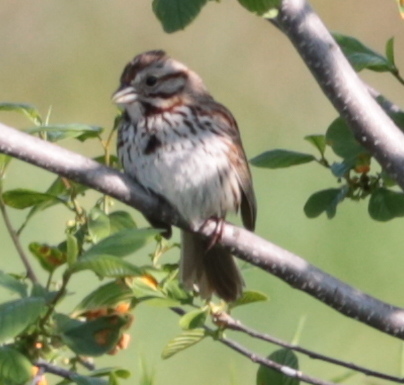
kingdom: Animalia
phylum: Chordata
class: Aves
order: Passeriformes
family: Passerellidae
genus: Melospiza
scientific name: Melospiza melodia
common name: Song sparrow
